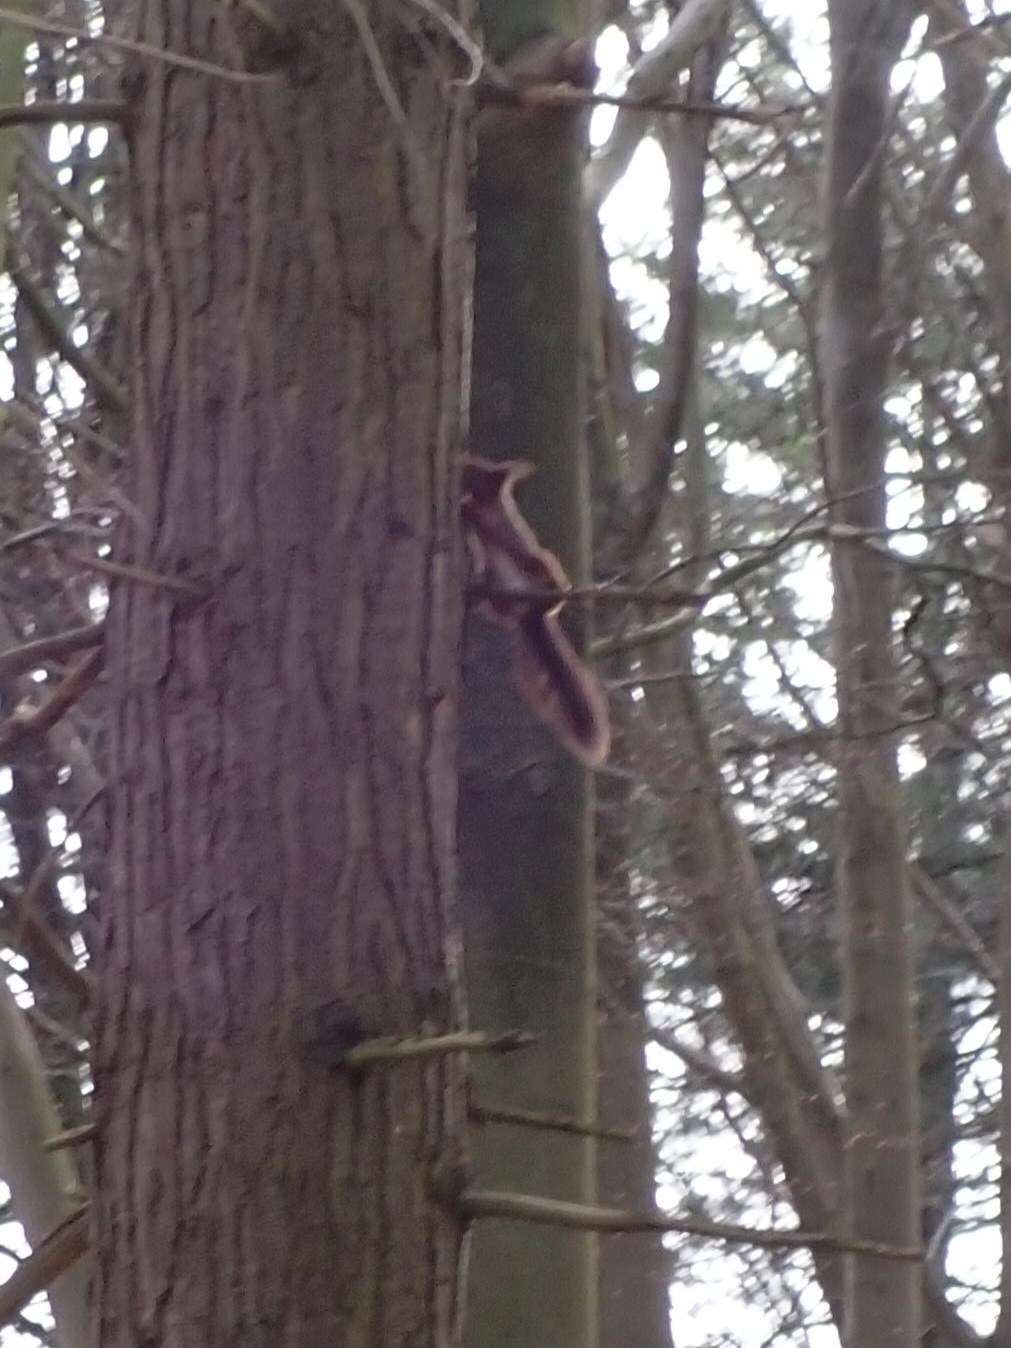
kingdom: Animalia
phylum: Chordata
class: Mammalia
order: Rodentia
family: Sciuridae
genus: Sciurus
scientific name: Sciurus vulgaris
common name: Eurasian red squirrel
